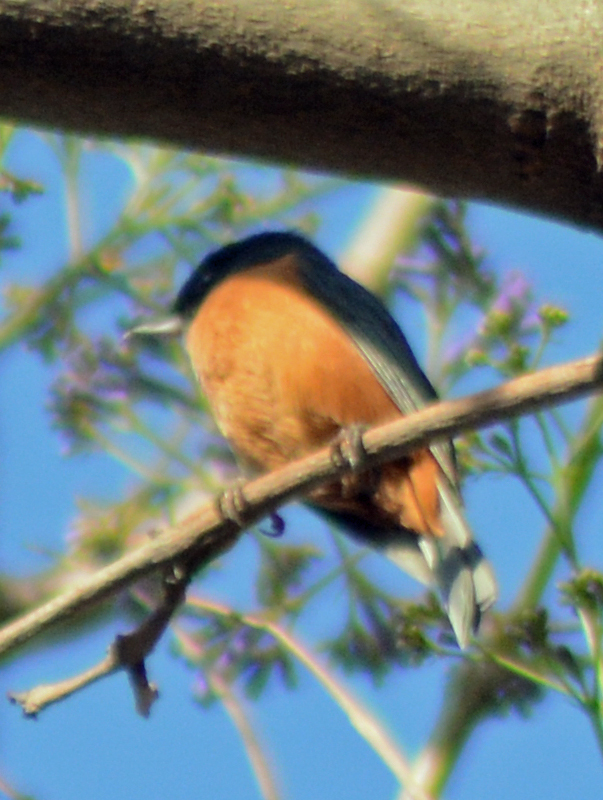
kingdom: Animalia
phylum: Chordata
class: Aves
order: Passeriformes
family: Thraupidae
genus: Diglossa
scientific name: Diglossa baritula
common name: Cinnamon-bellied flowerpiercer
